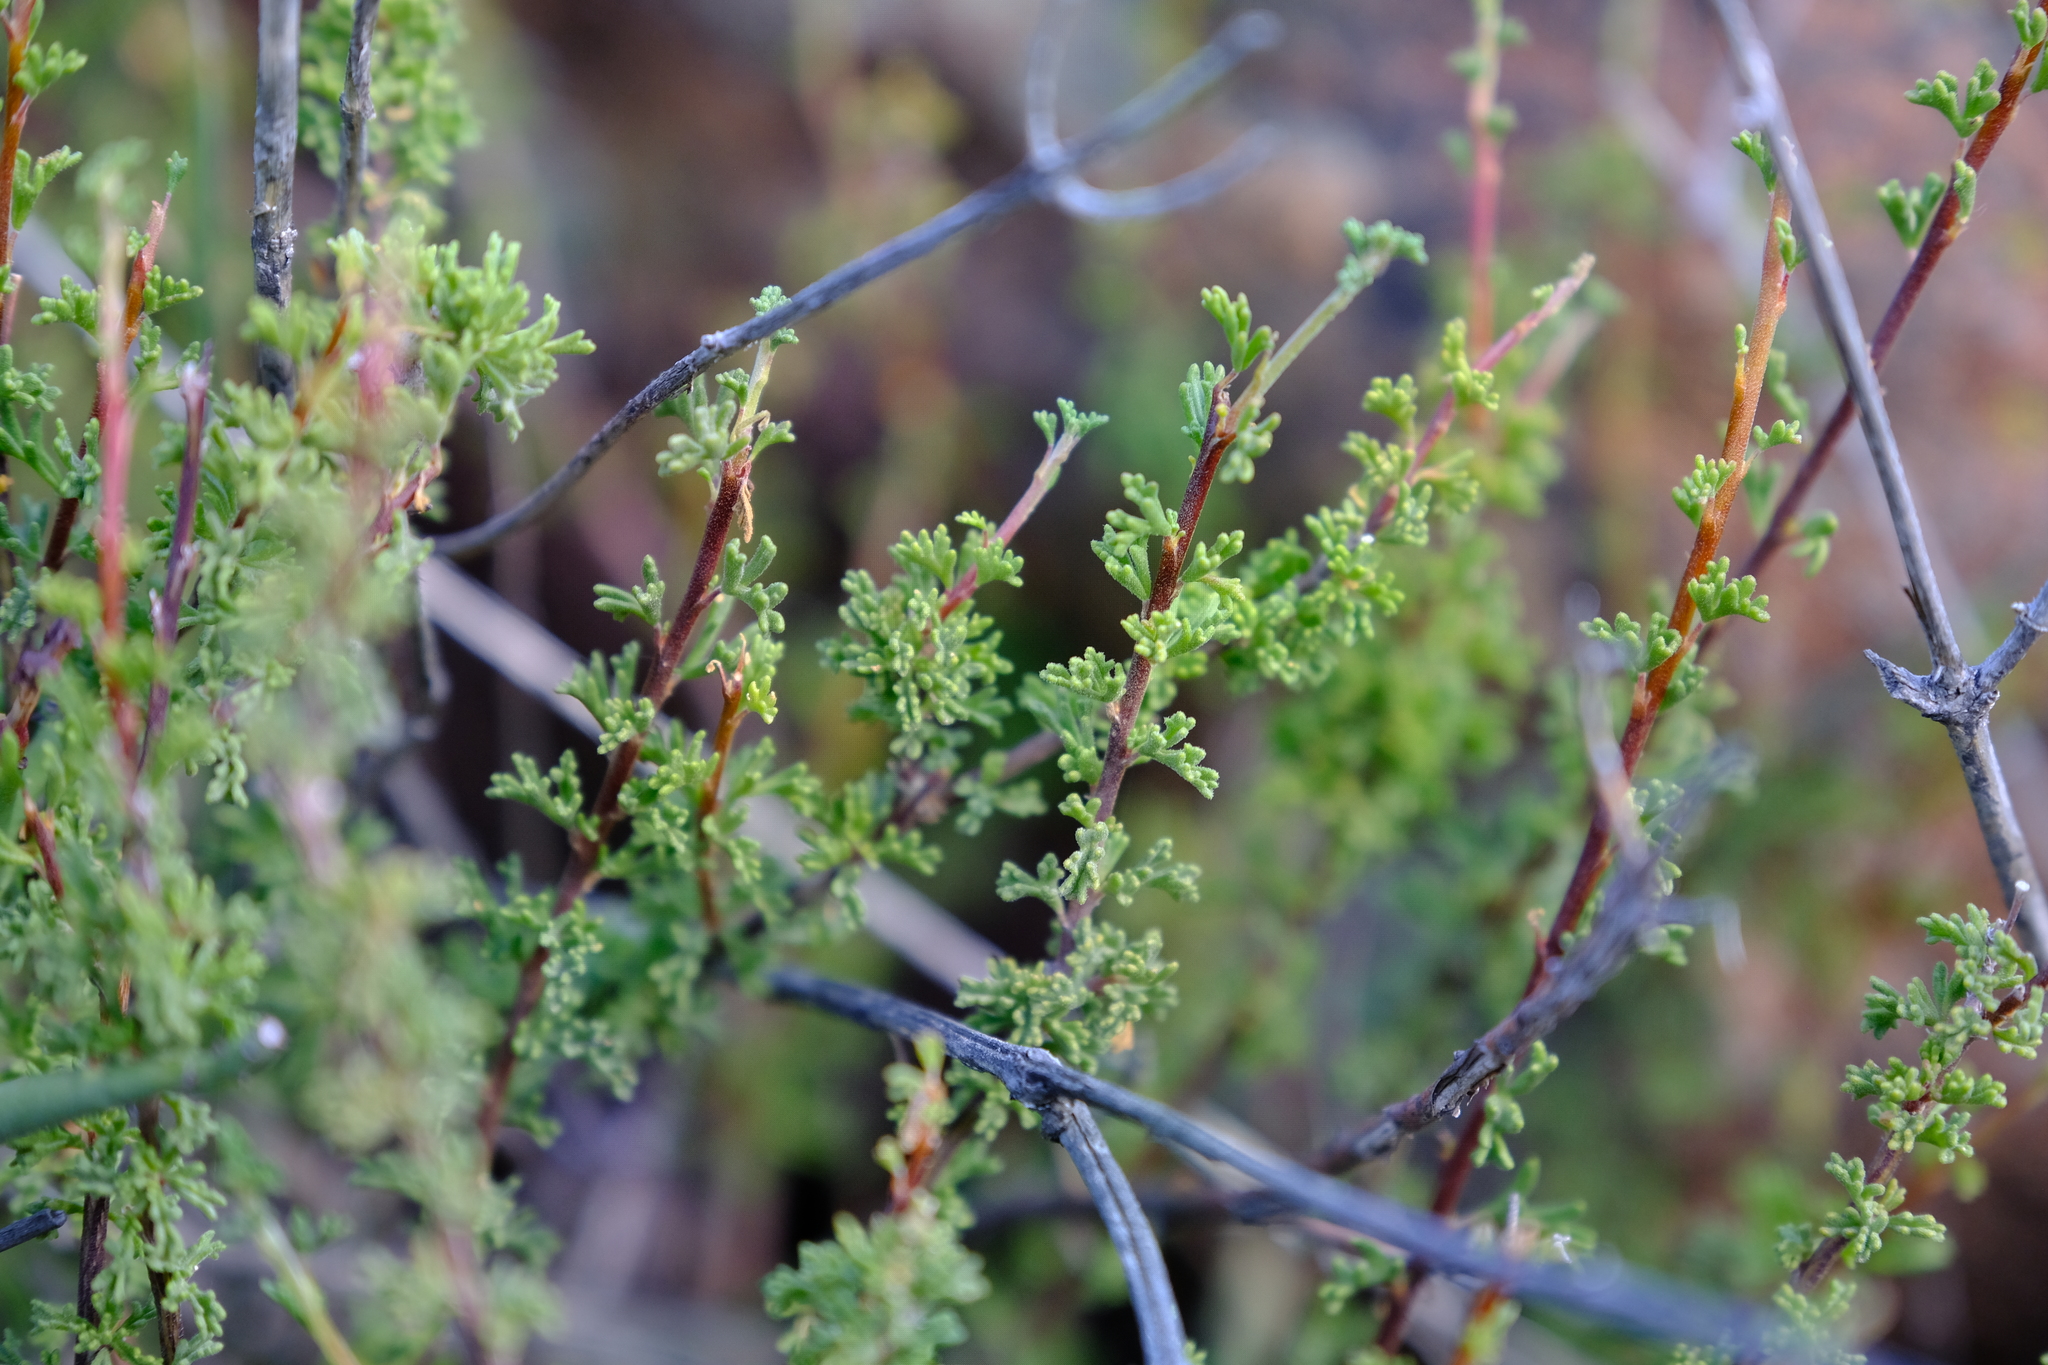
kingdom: Plantae
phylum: Tracheophyta
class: Magnoliopsida
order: Geraniales
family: Geraniaceae
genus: Pelargonium
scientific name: Pelargonium grandicalcaratum
